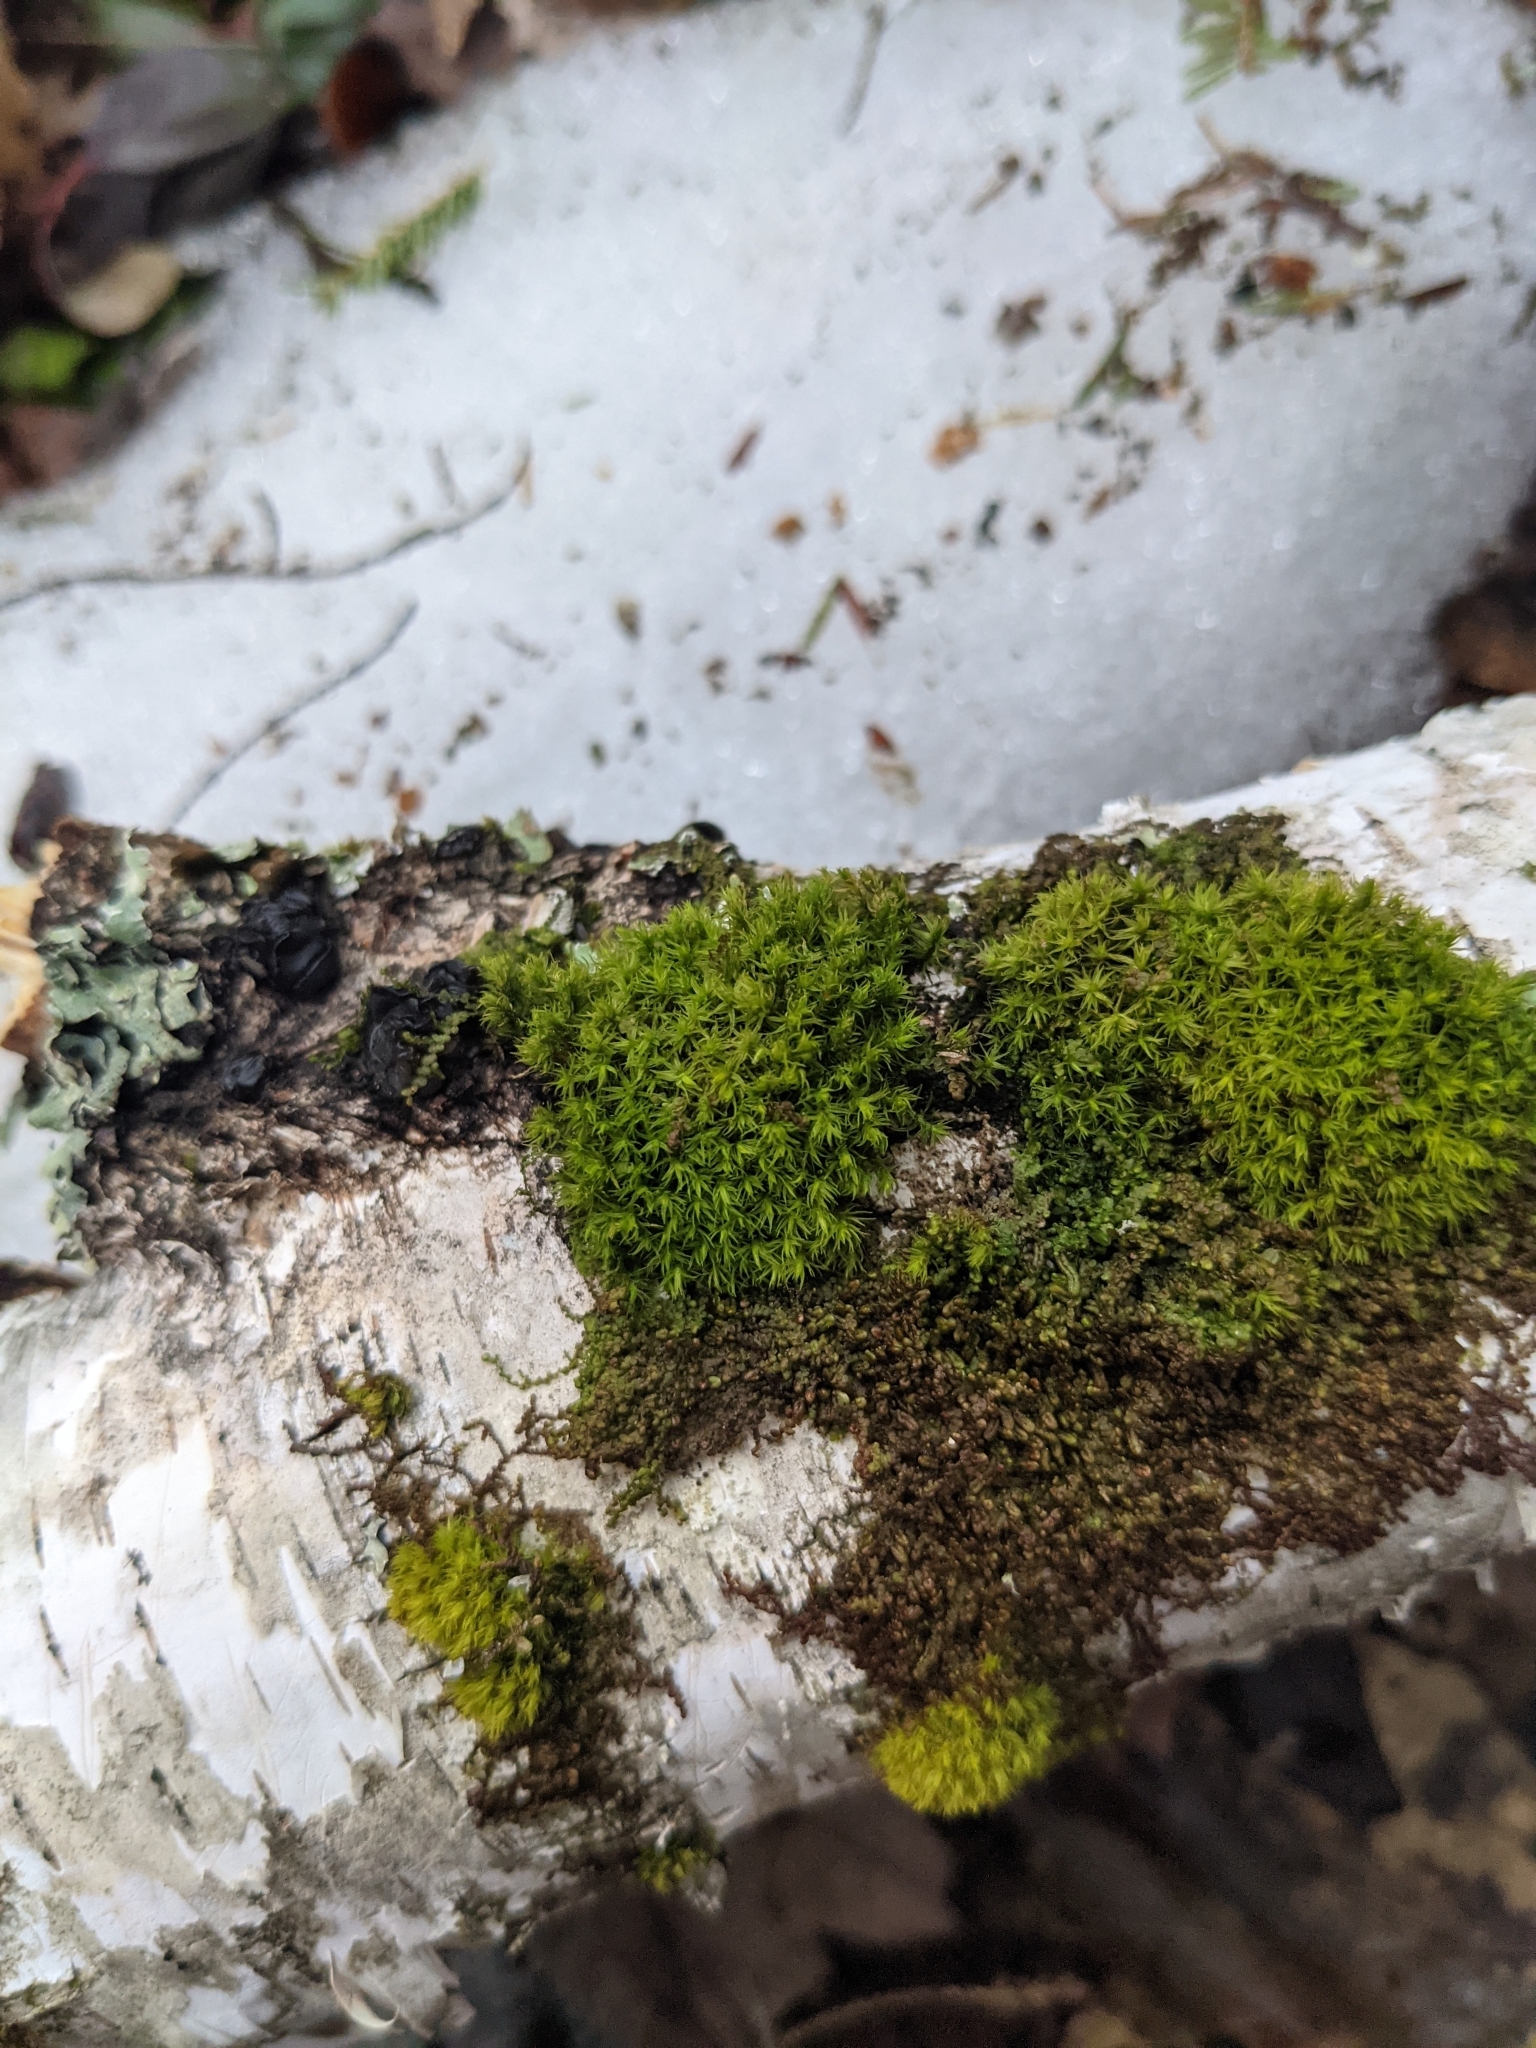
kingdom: Plantae
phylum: Bryophyta
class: Bryopsida
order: Orthotrichales
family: Orthotrichaceae
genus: Ulota
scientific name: Ulota crispa
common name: Crisped pincushion moss
